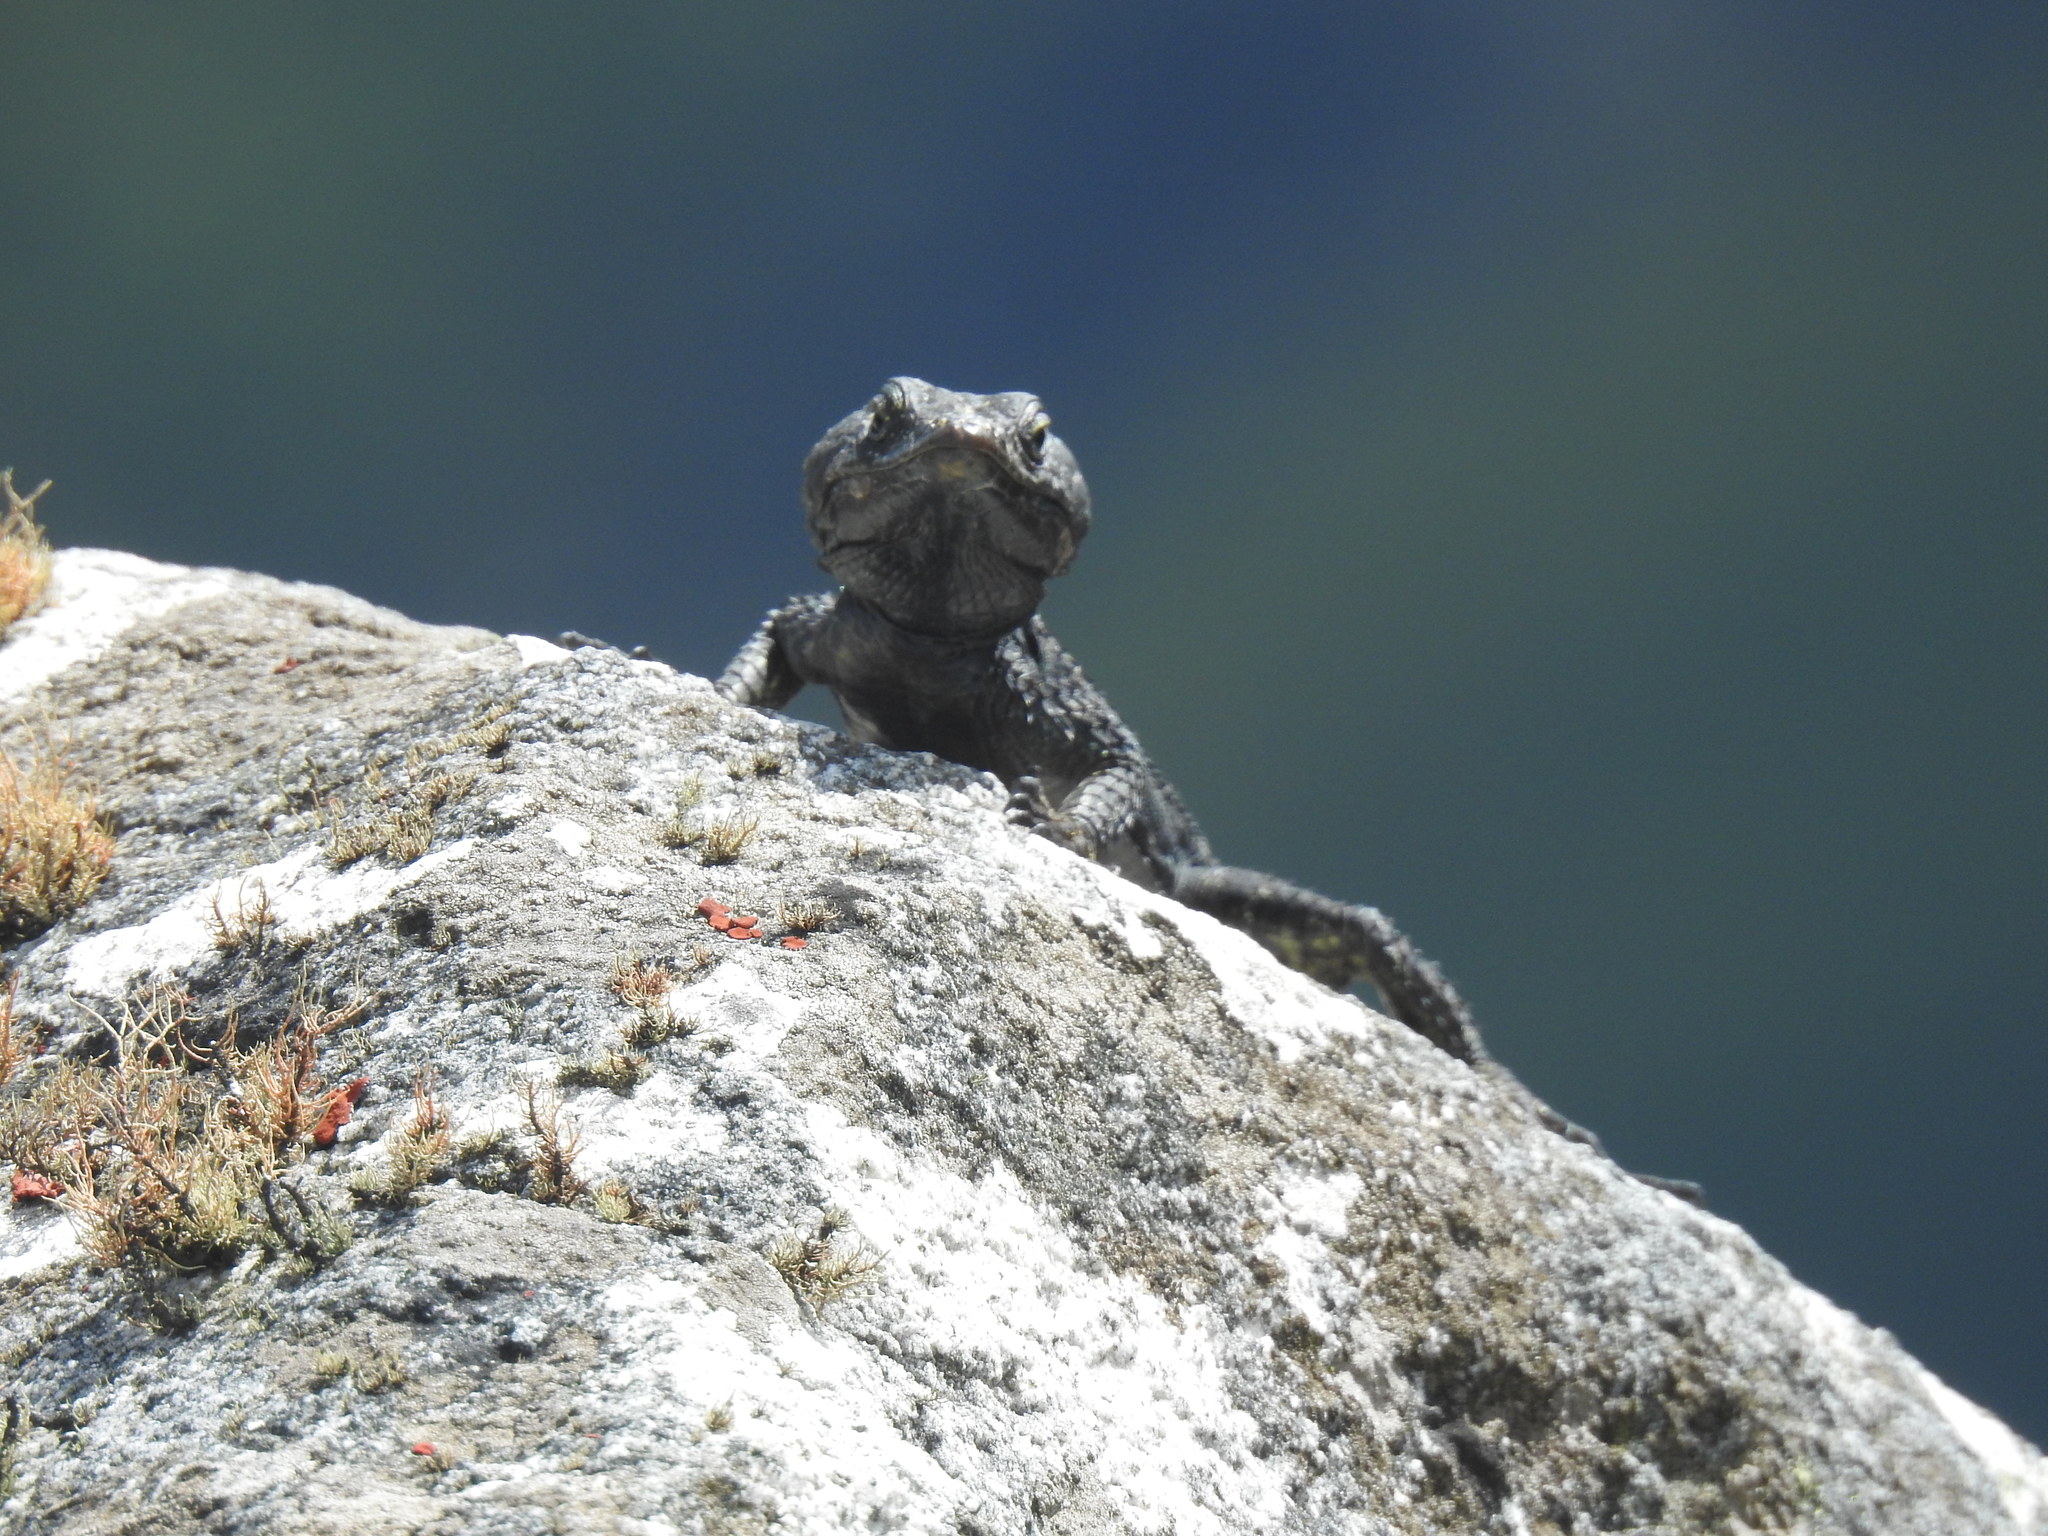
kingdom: Animalia
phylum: Chordata
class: Squamata
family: Cordylidae
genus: Pseudocordylus
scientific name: Pseudocordylus microlepidotus
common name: Cape crag lizard
